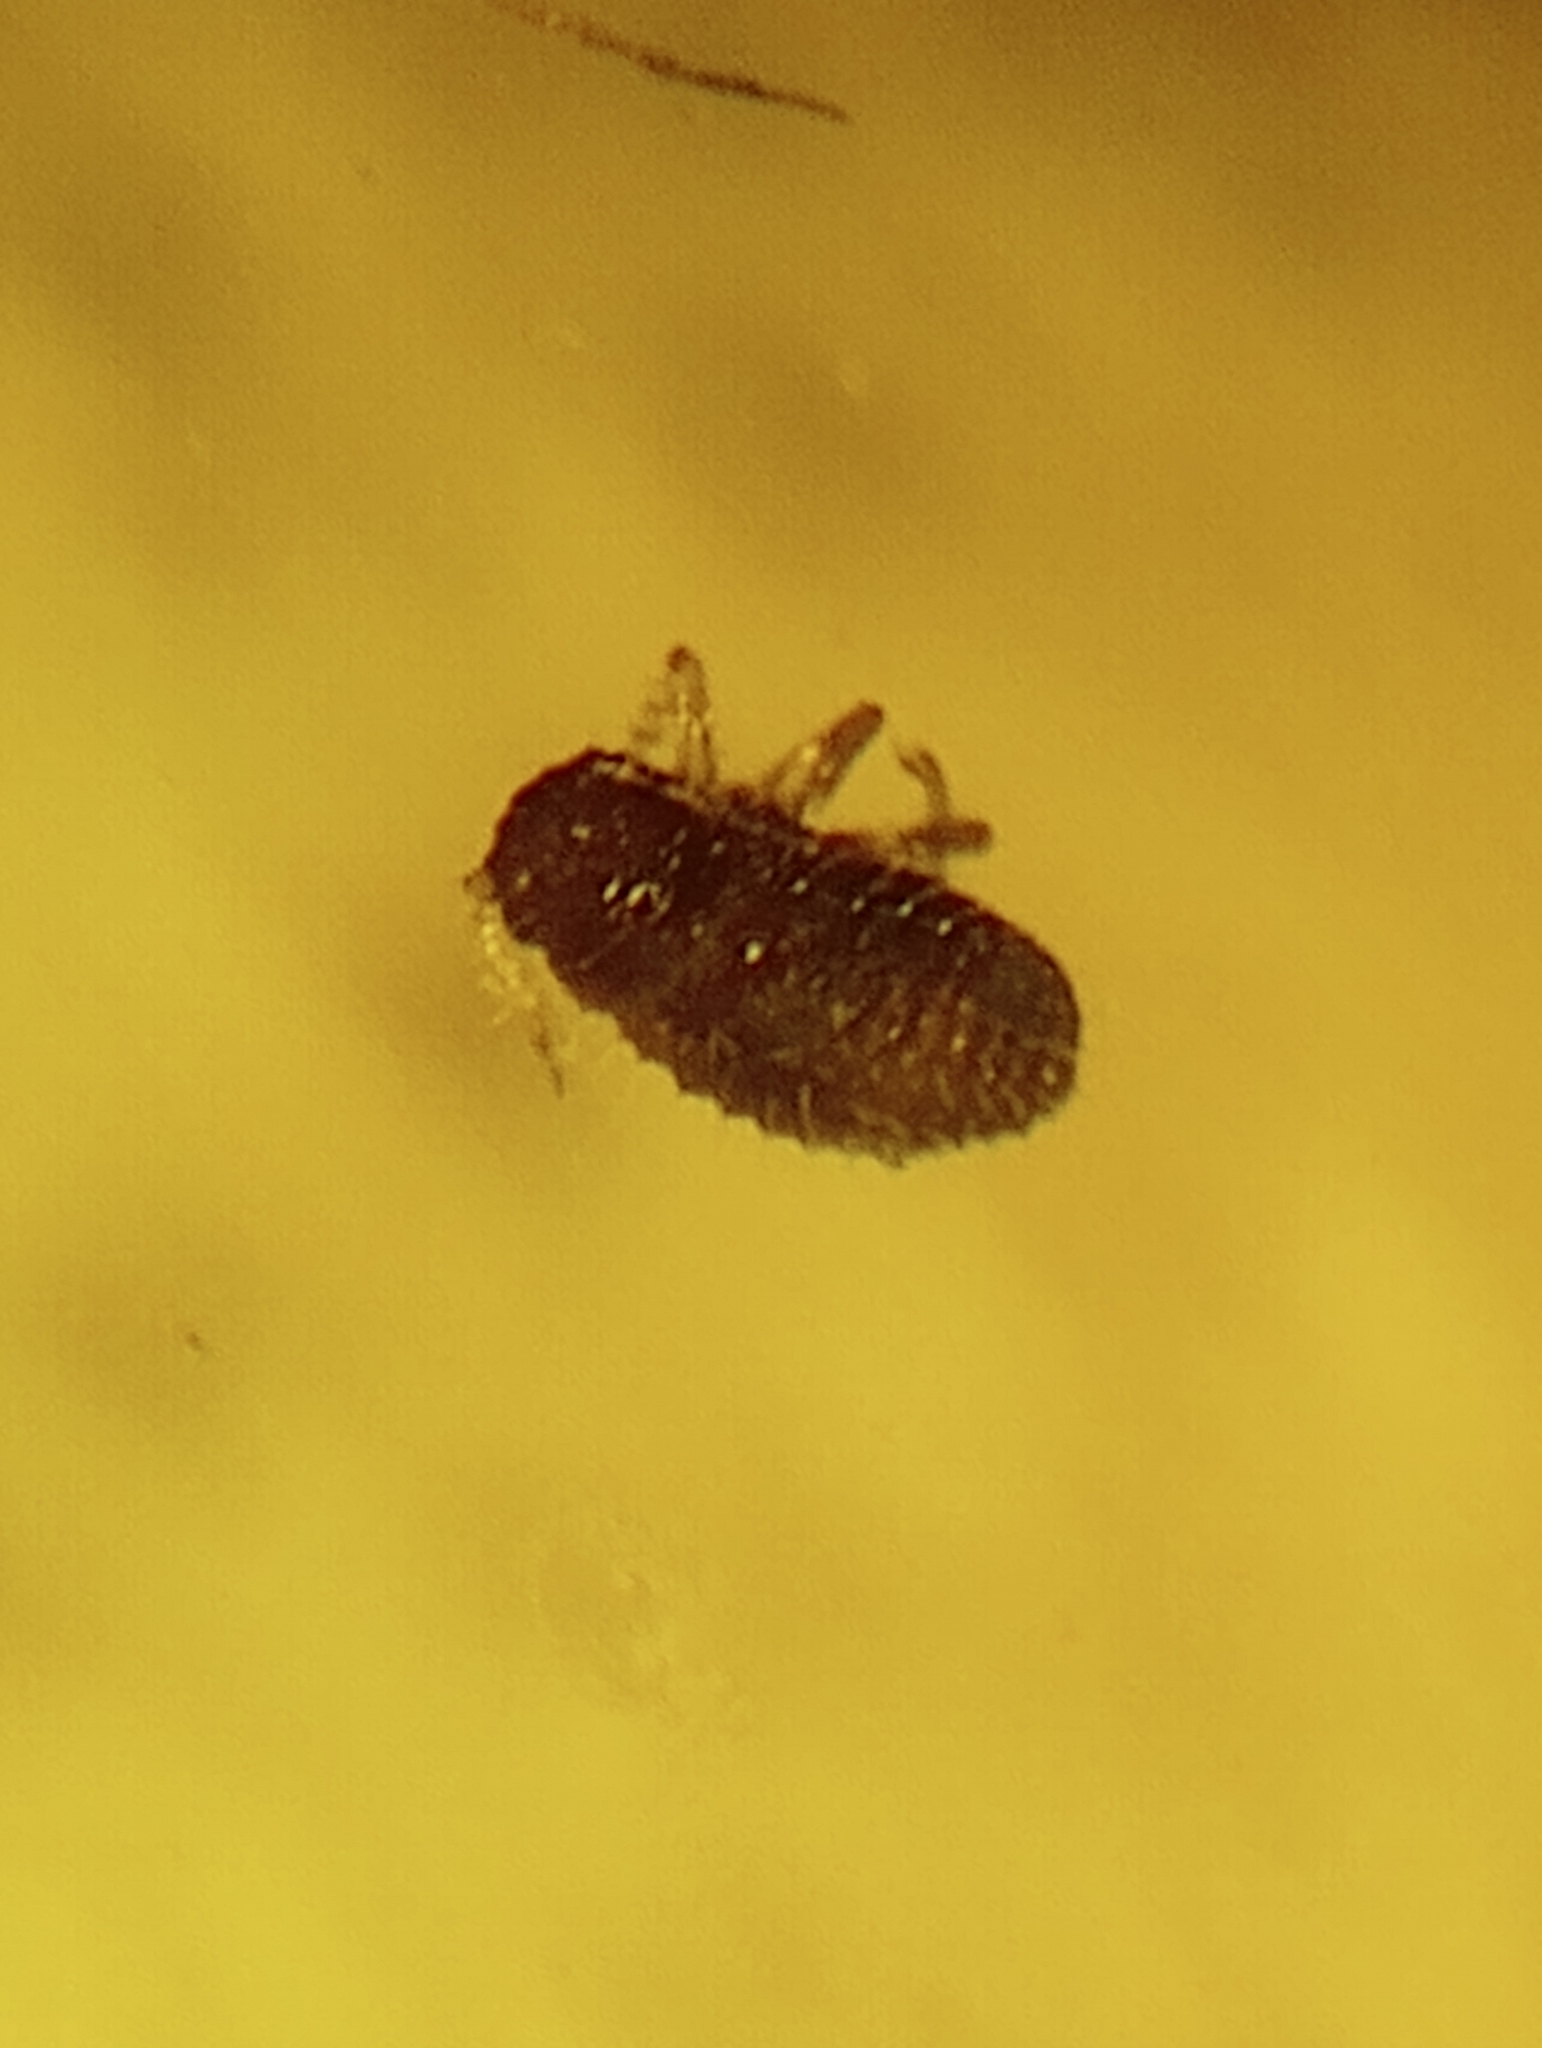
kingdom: Animalia
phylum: Arthropoda
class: Insecta
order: Hemiptera
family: Aphididae
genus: Sipha
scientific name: Sipha maydis
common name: Aphid
